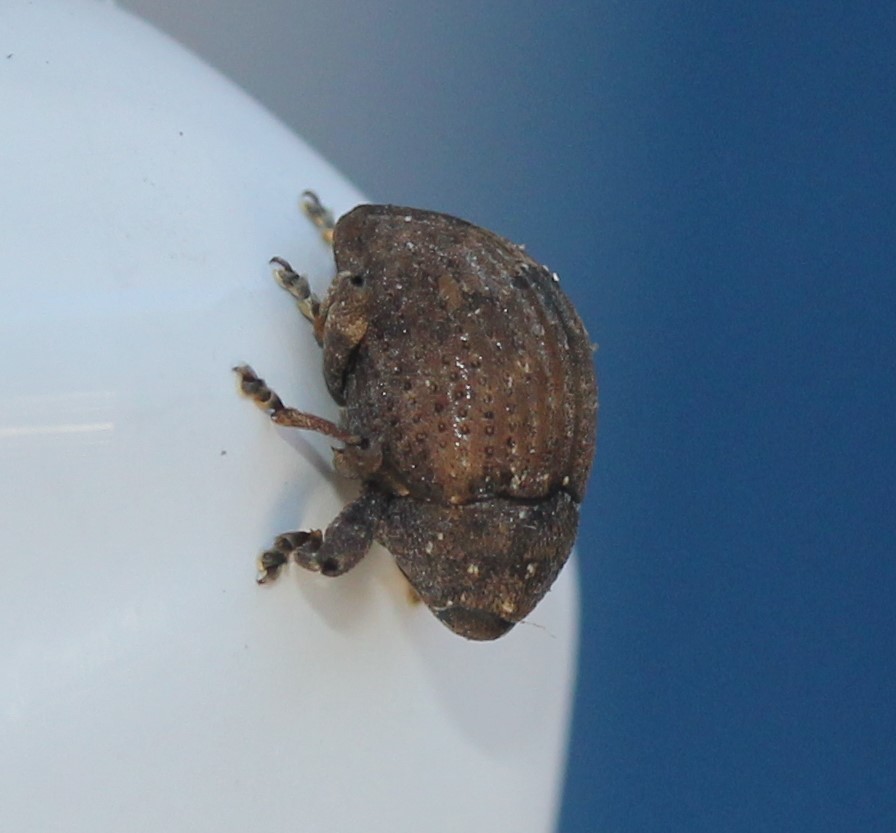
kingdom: Animalia
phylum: Arthropoda
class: Insecta
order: Coleoptera
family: Curculionidae
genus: Pseudomopsis
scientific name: Pseudomopsis inflatus
